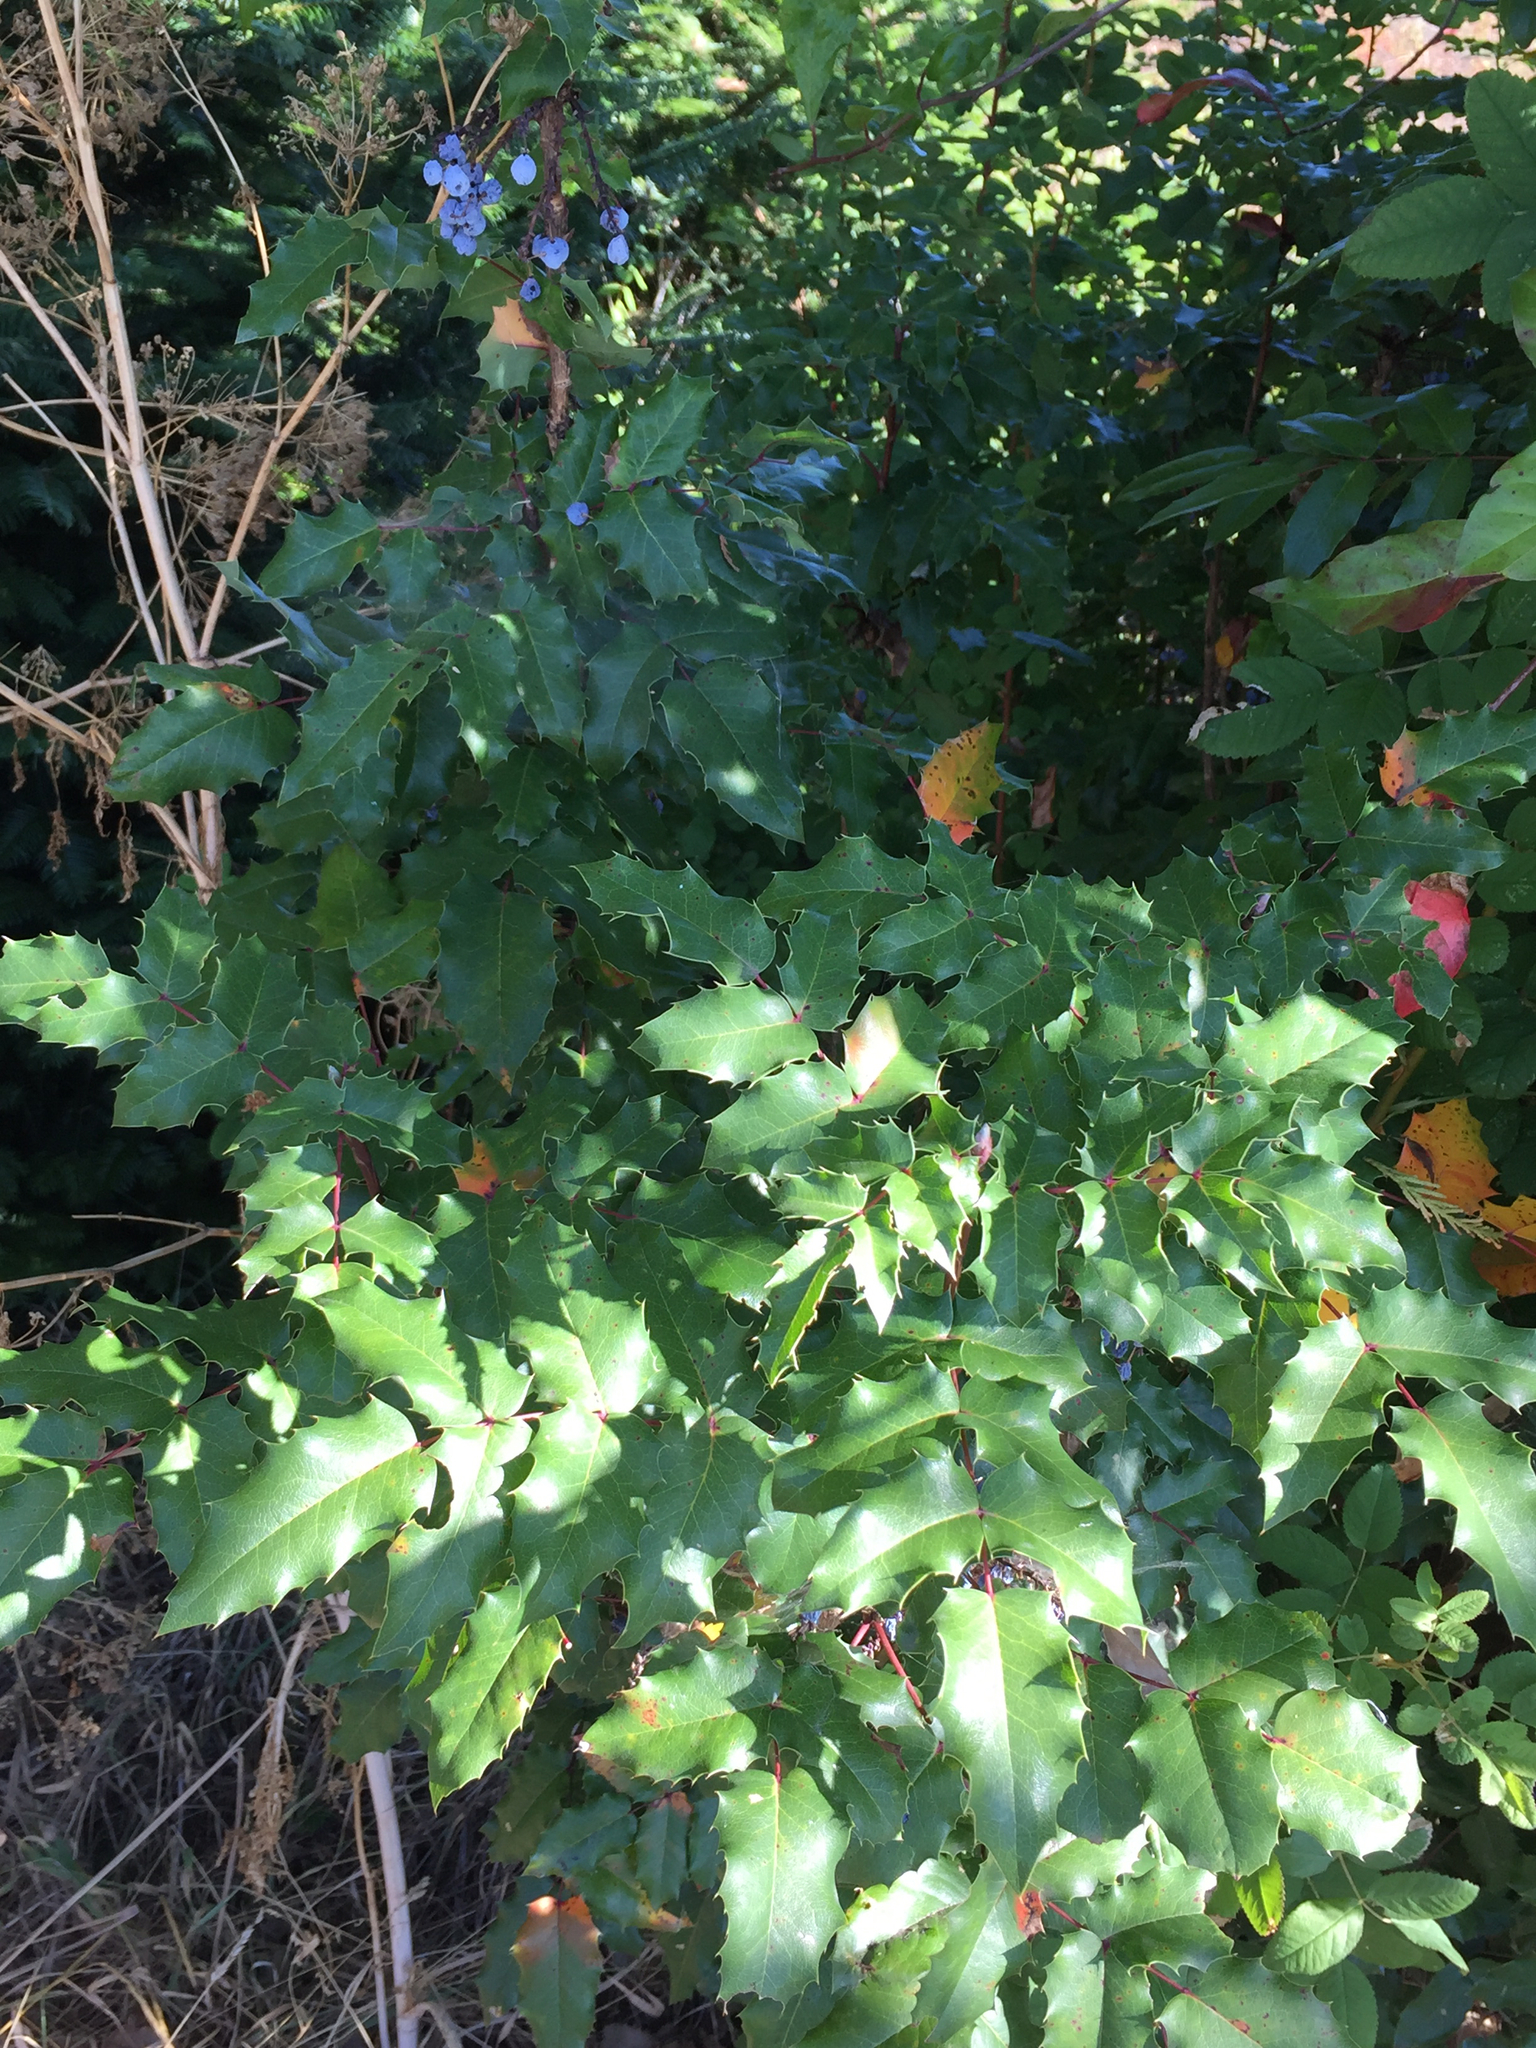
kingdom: Plantae
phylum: Tracheophyta
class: Magnoliopsida
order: Ranunculales
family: Berberidaceae
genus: Mahonia
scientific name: Mahonia aquifolium
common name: Oregon-grape
